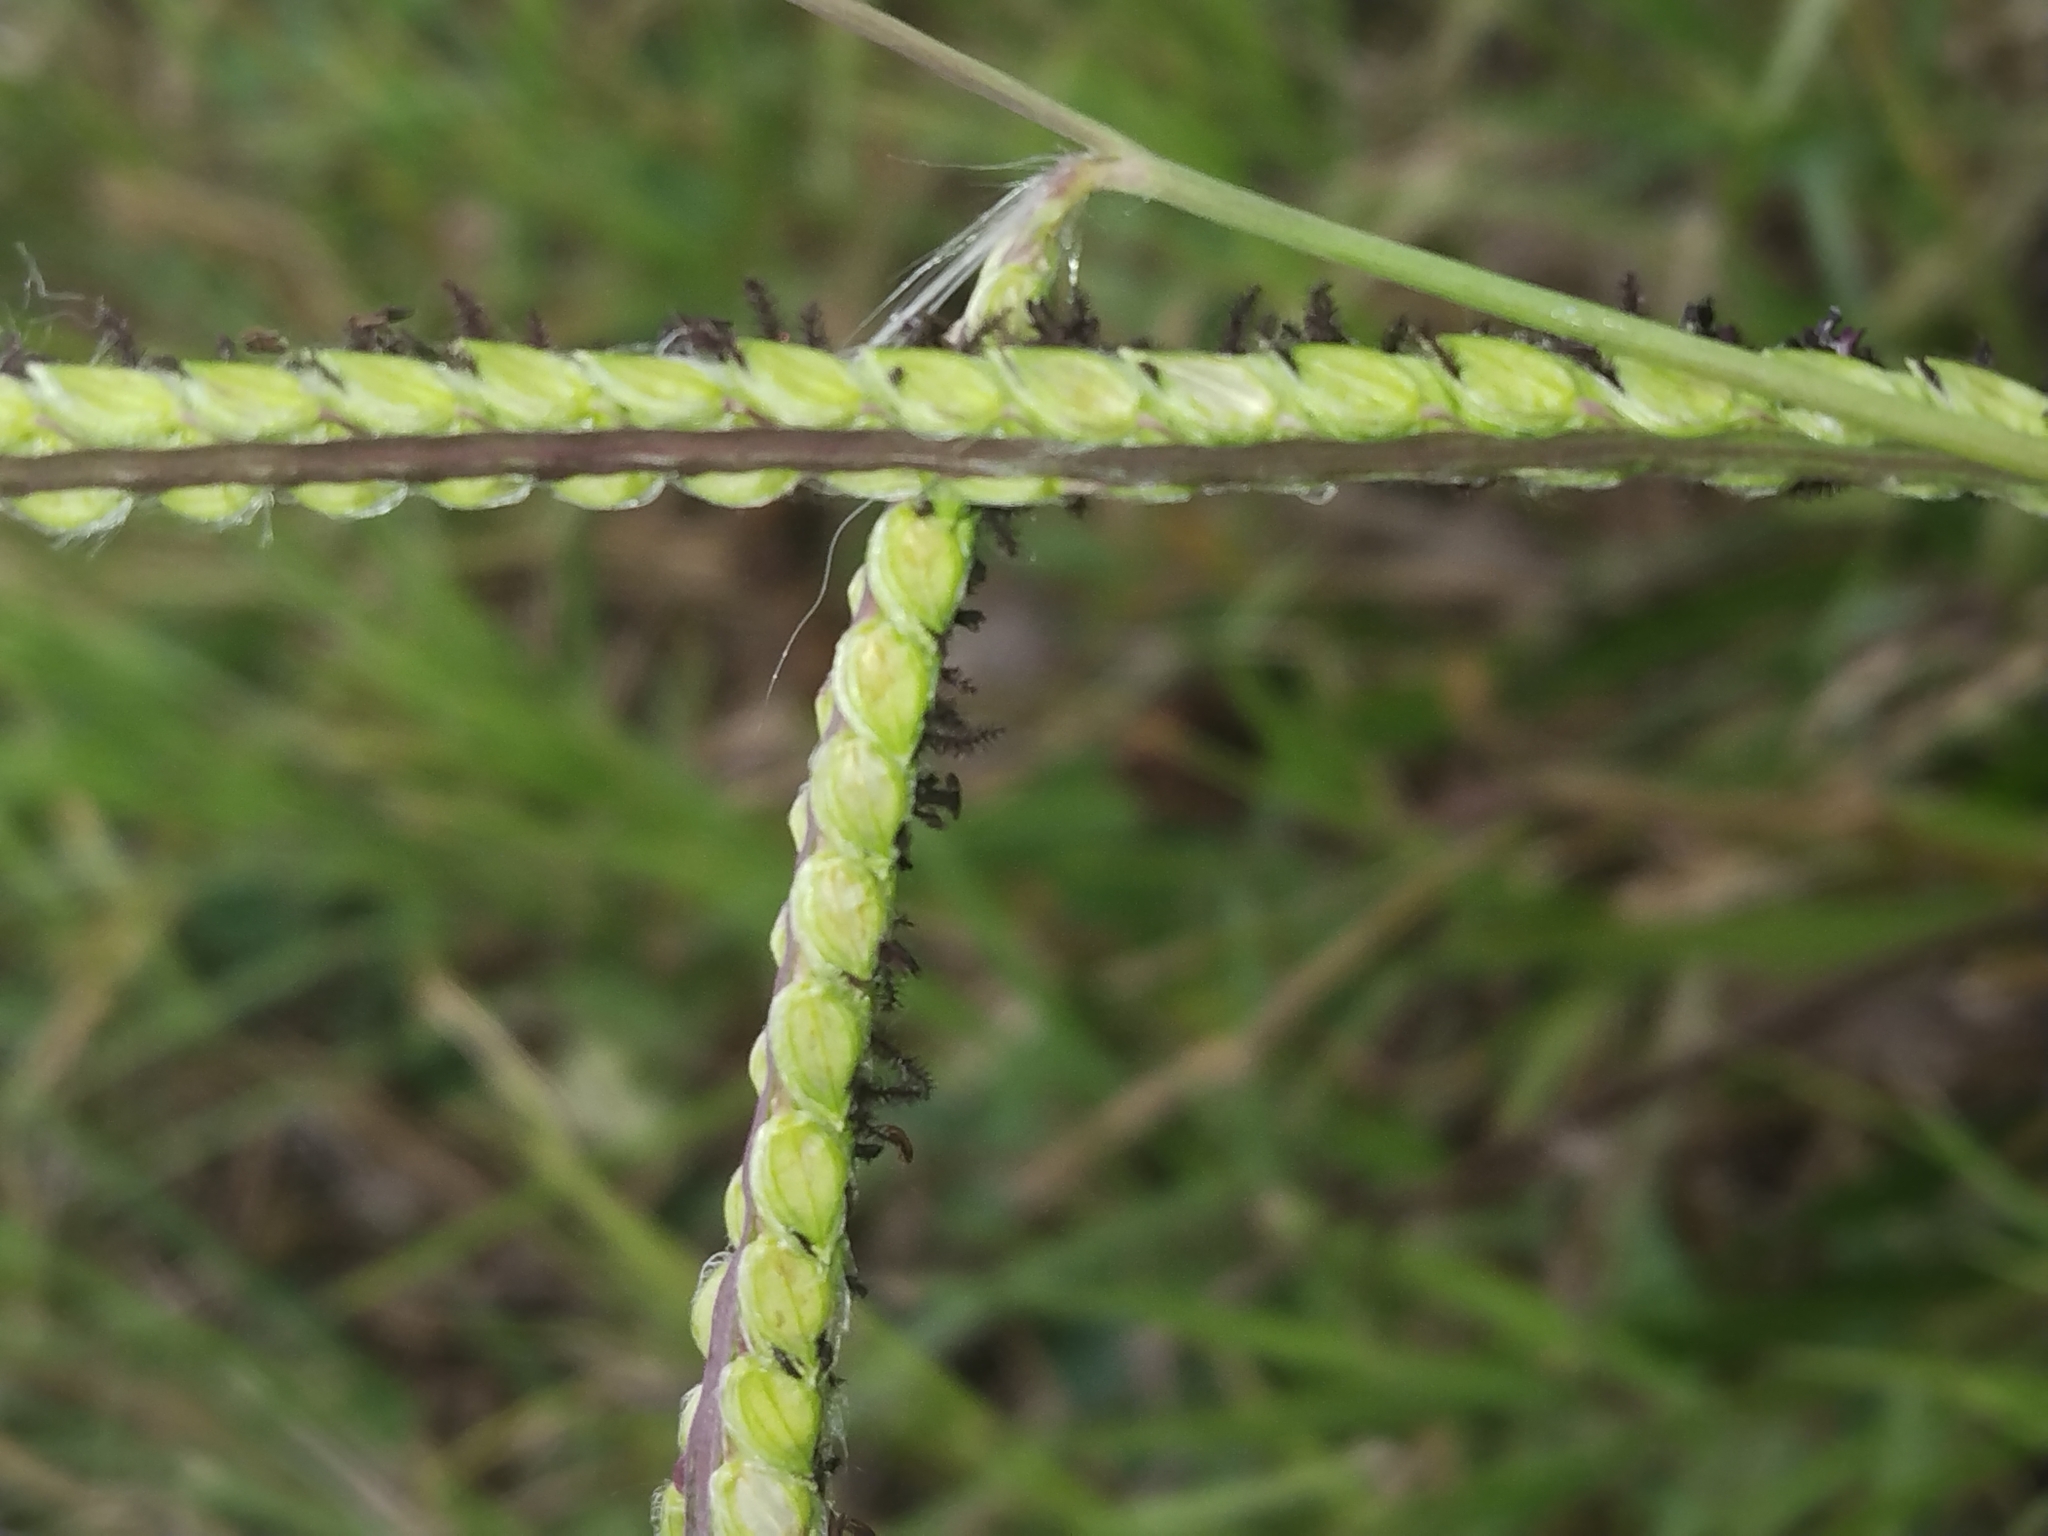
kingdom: Plantae
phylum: Tracheophyta
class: Liliopsida
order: Poales
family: Poaceae
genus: Paspalum
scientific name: Paspalum dilatatum
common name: Dallisgrass
